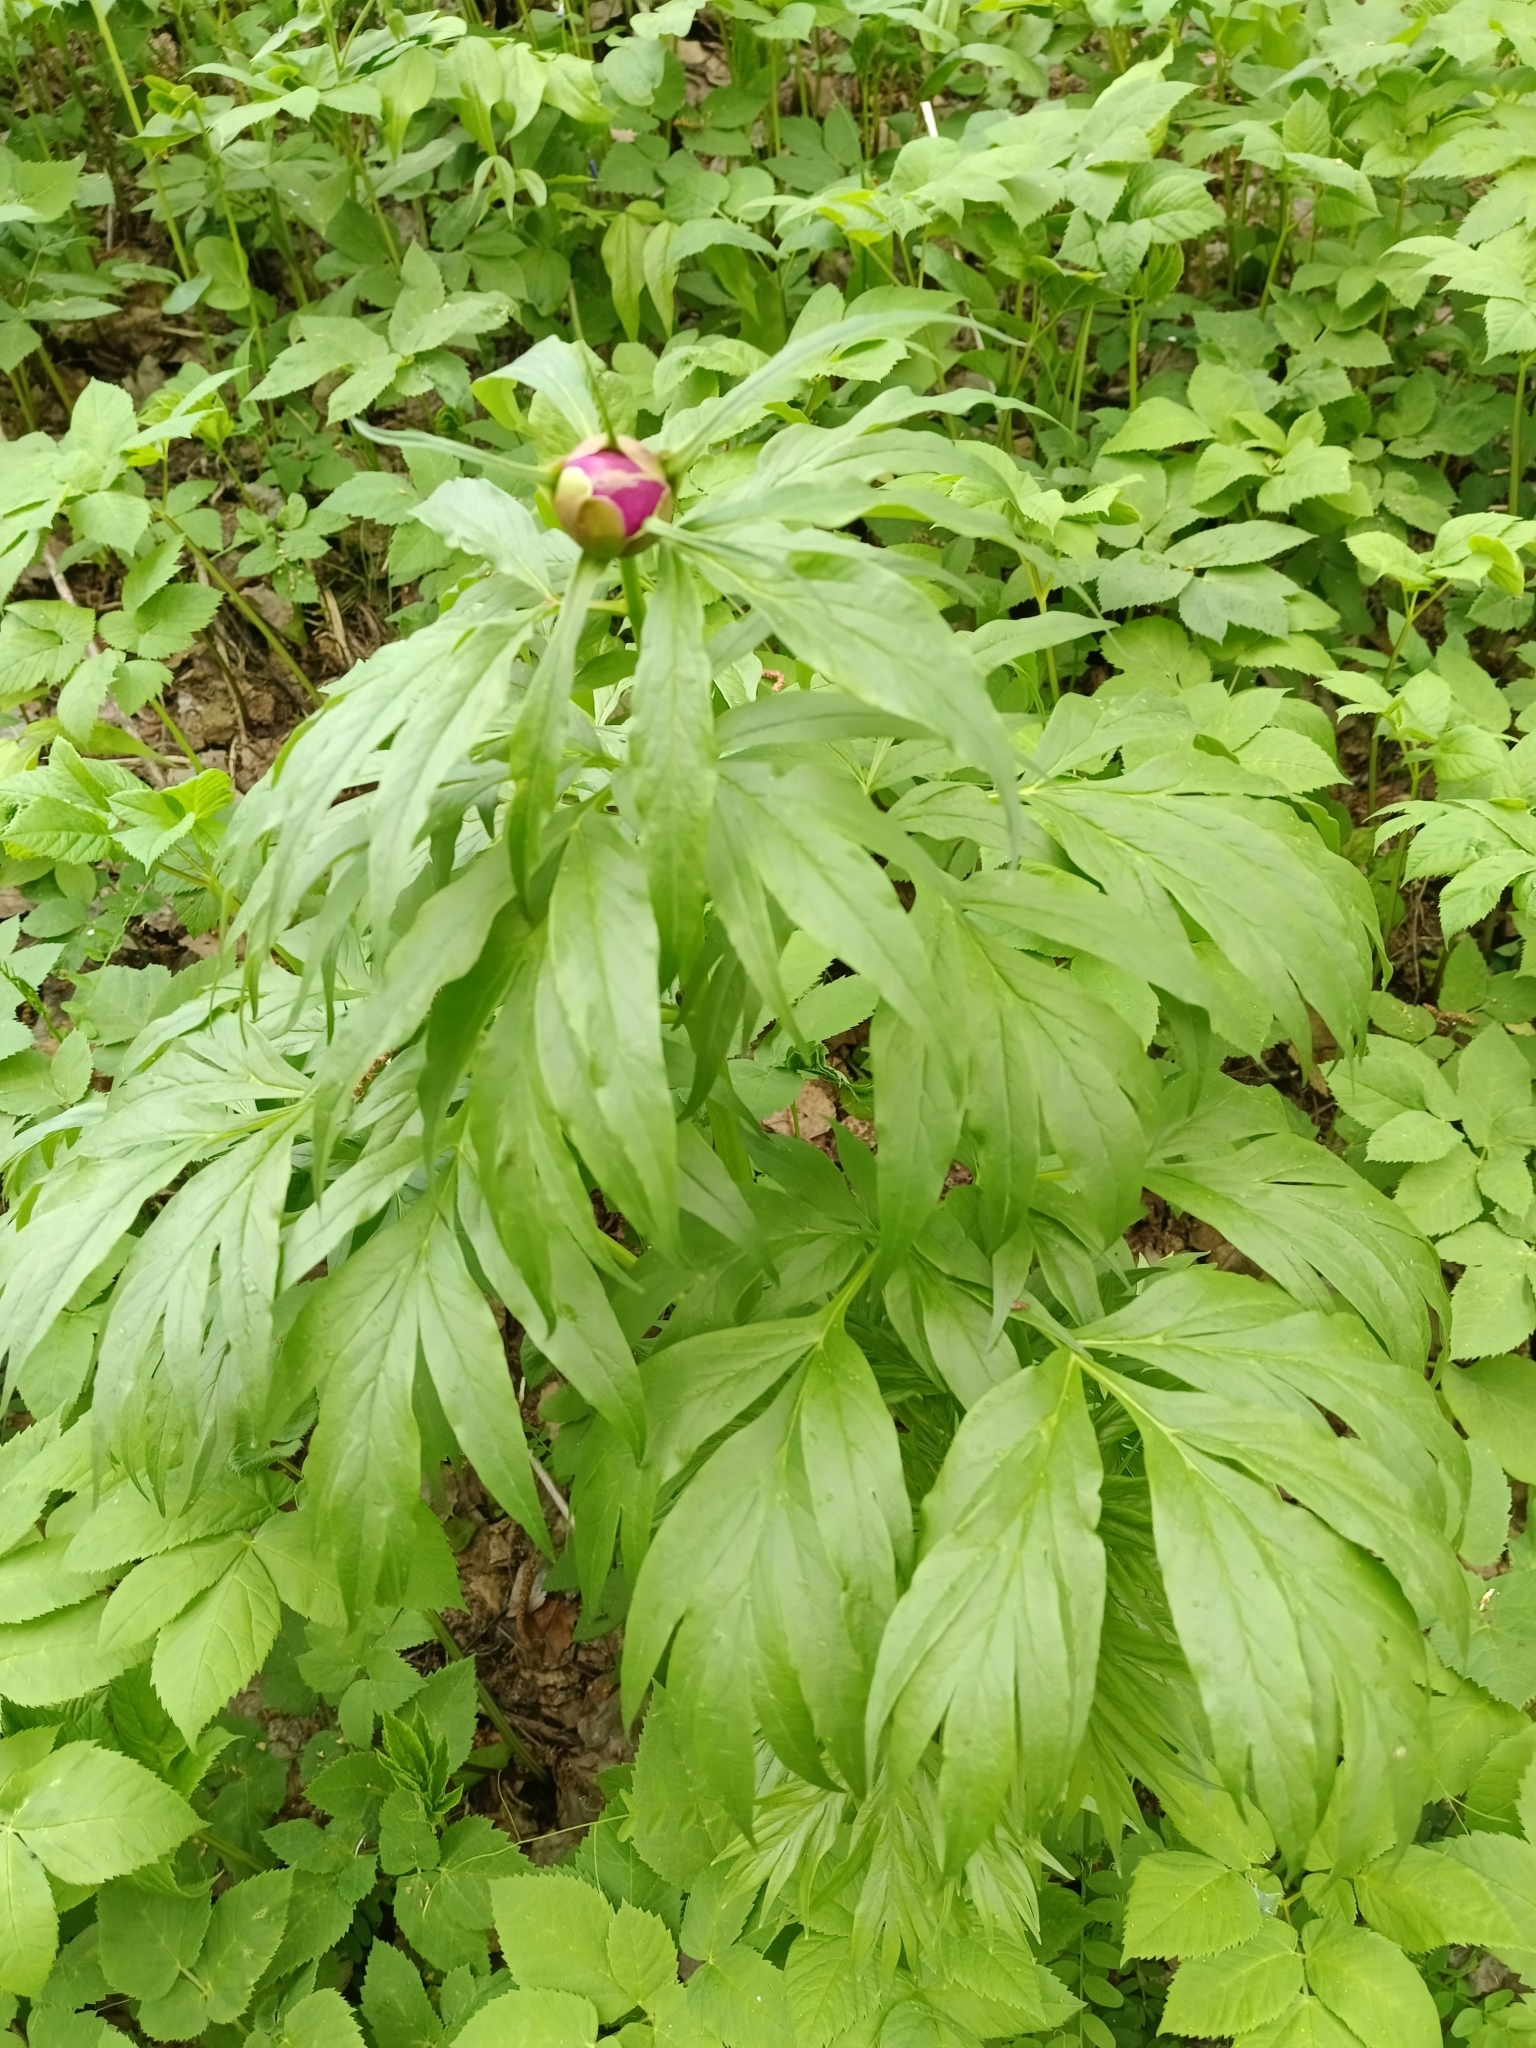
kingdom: Plantae
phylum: Tracheophyta
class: Magnoliopsida
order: Saxifragales
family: Paeoniaceae
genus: Paeonia
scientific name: Paeonia anomala
